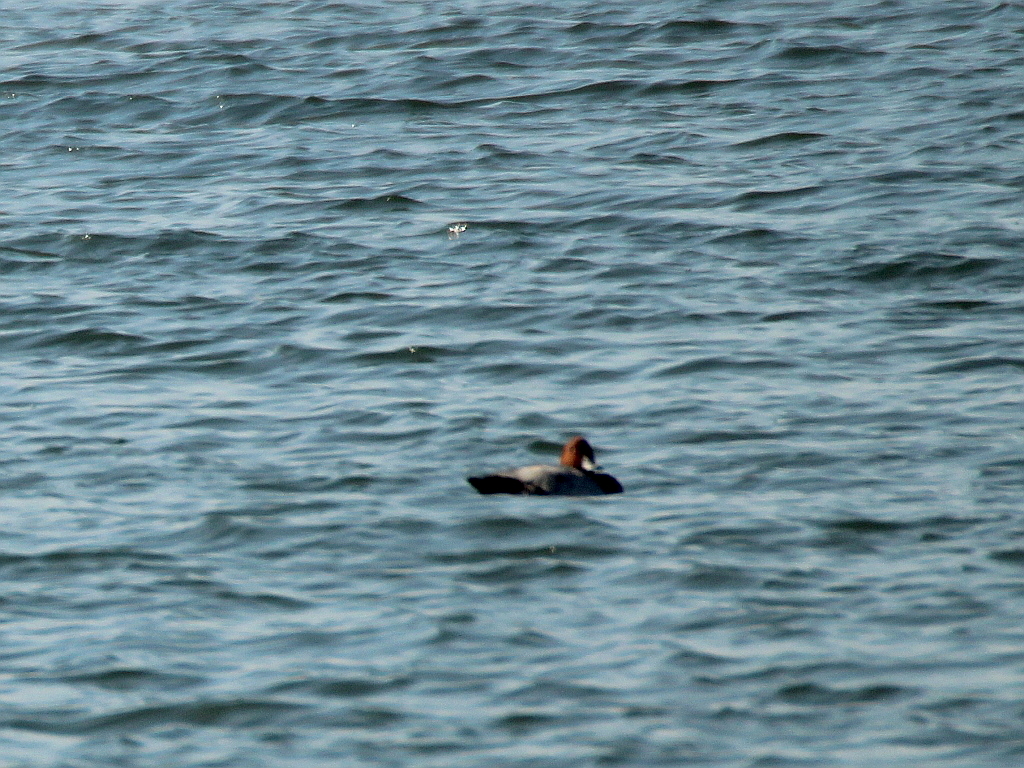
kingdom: Animalia
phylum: Chordata
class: Aves
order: Anseriformes
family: Anatidae
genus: Aythya
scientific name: Aythya ferina
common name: Common pochard
